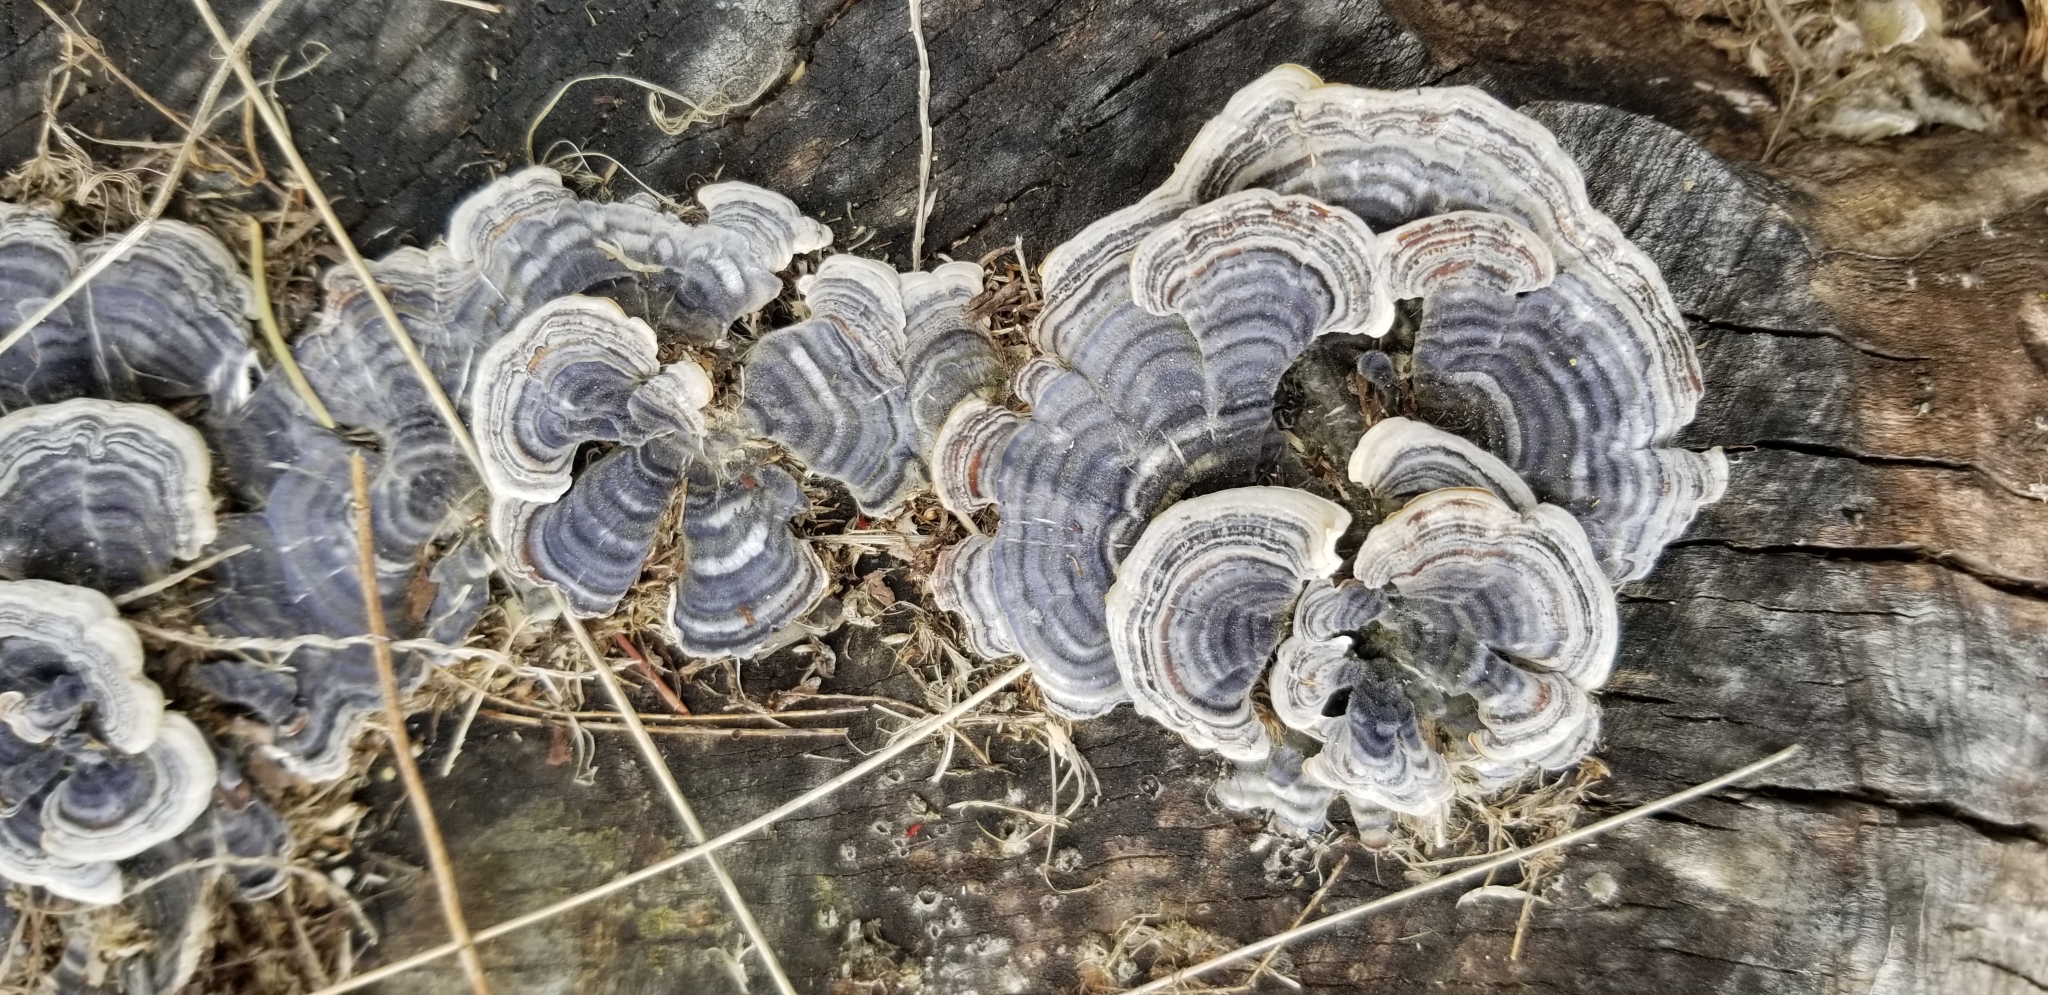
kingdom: Fungi
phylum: Basidiomycota
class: Agaricomycetes
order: Polyporales
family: Polyporaceae
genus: Trametes
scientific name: Trametes versicolor
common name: Turkeytail
